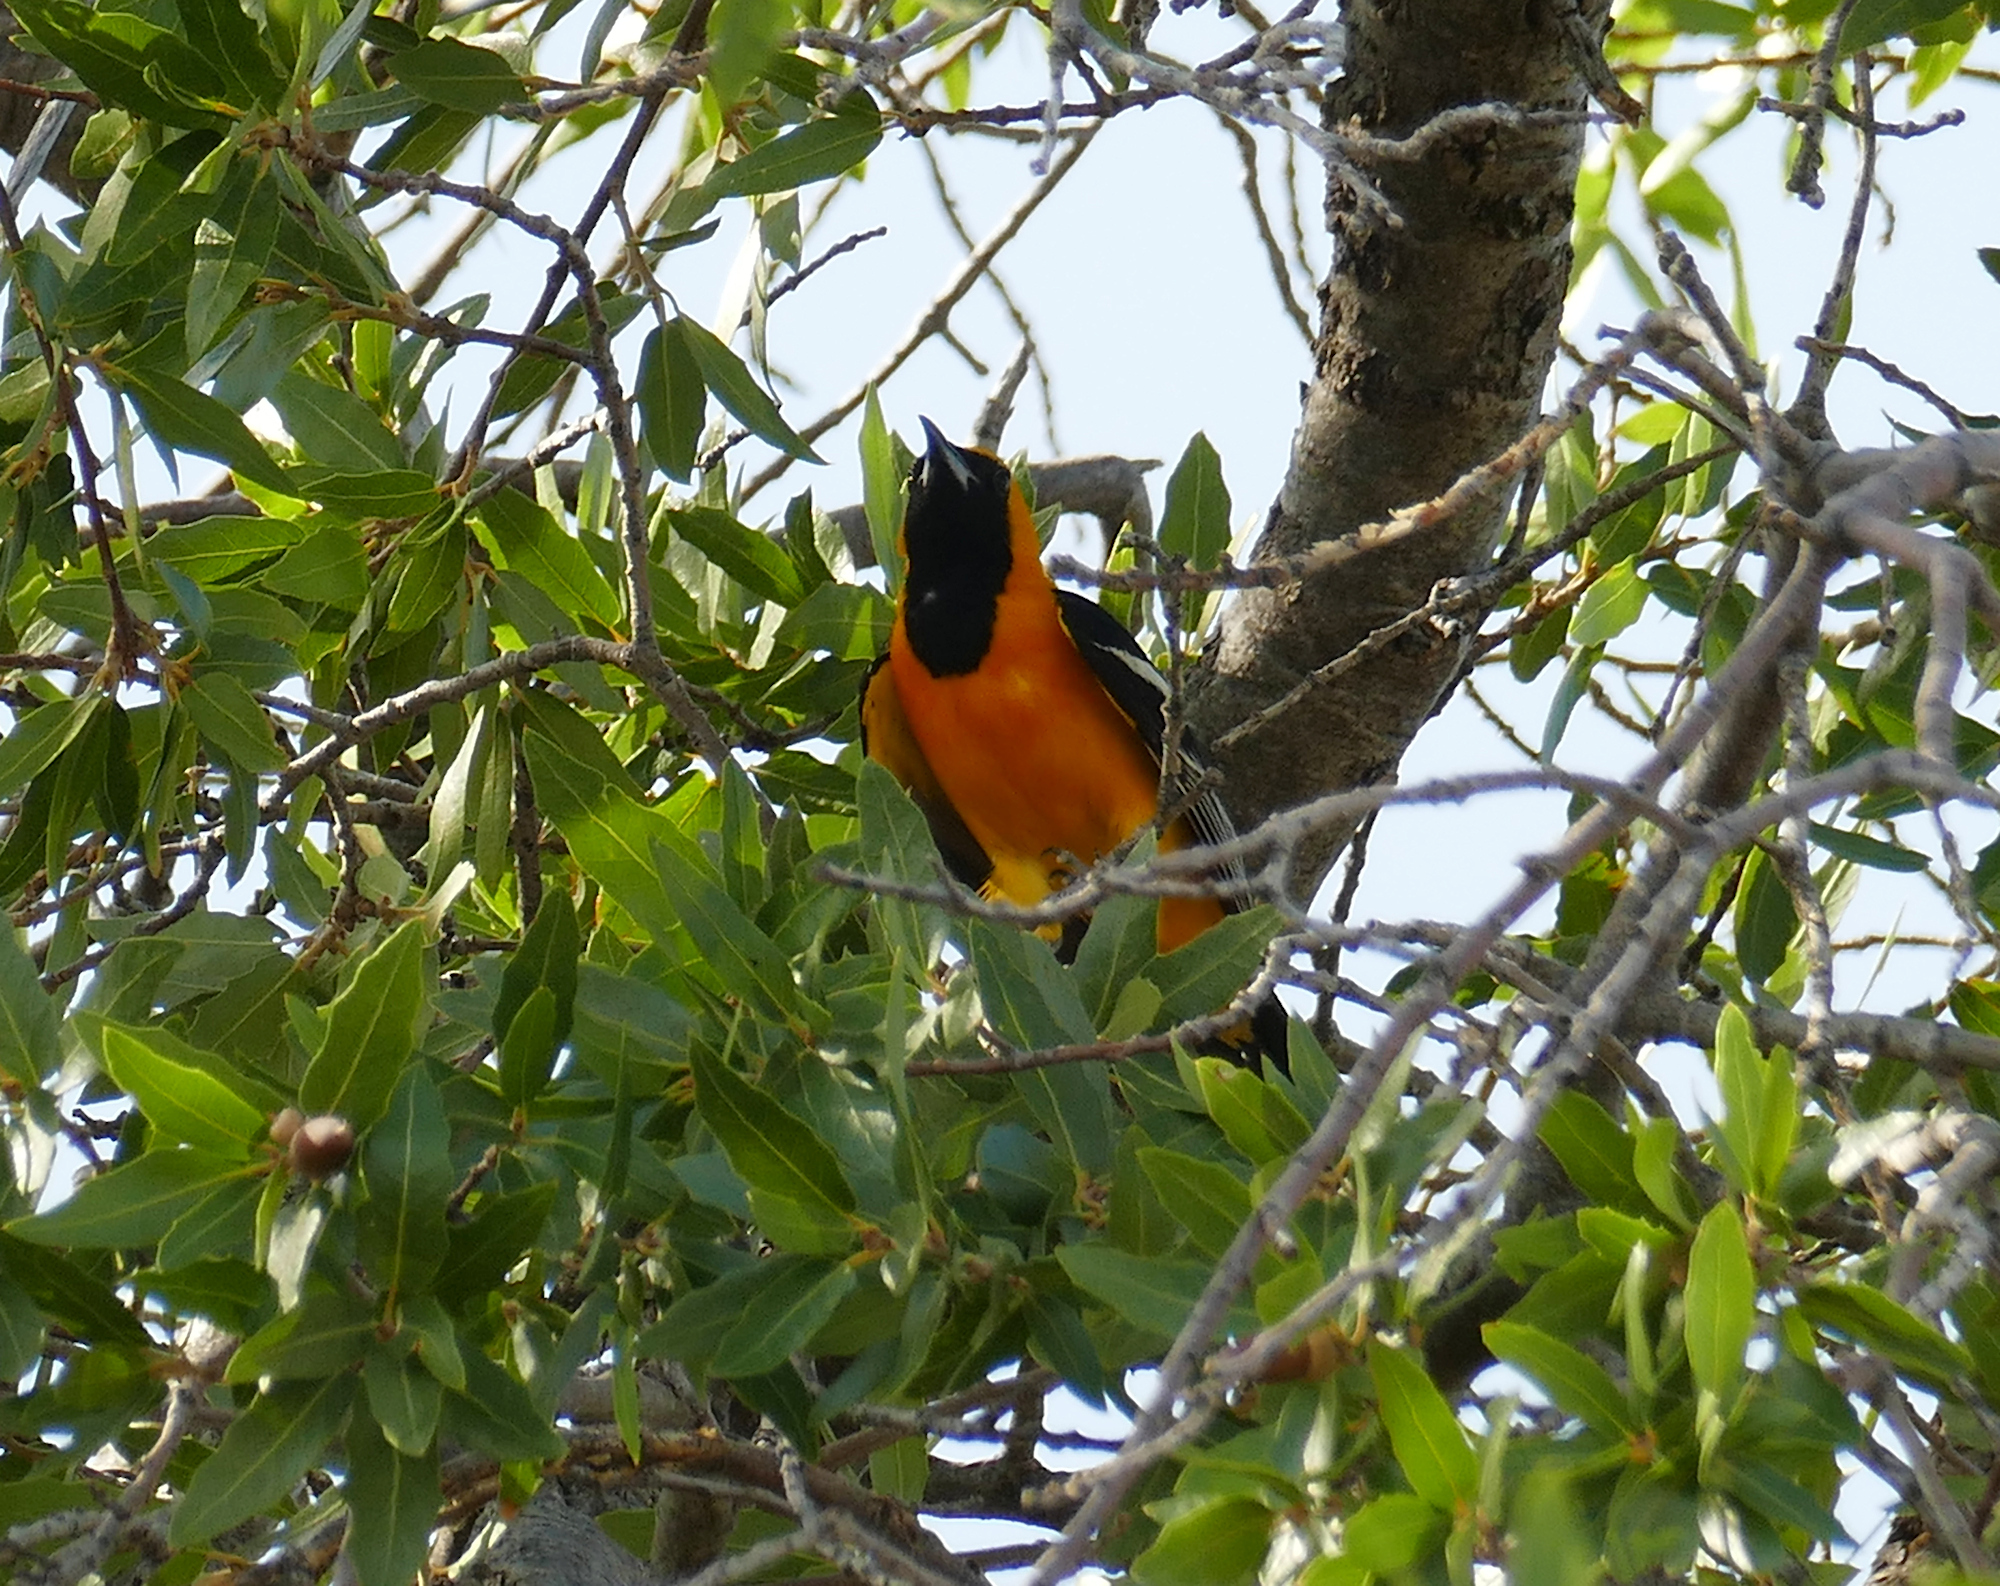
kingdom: Animalia
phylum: Chordata
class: Aves
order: Passeriformes
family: Icteridae
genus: Icterus
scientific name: Icterus cucullatus
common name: Hooded oriole
